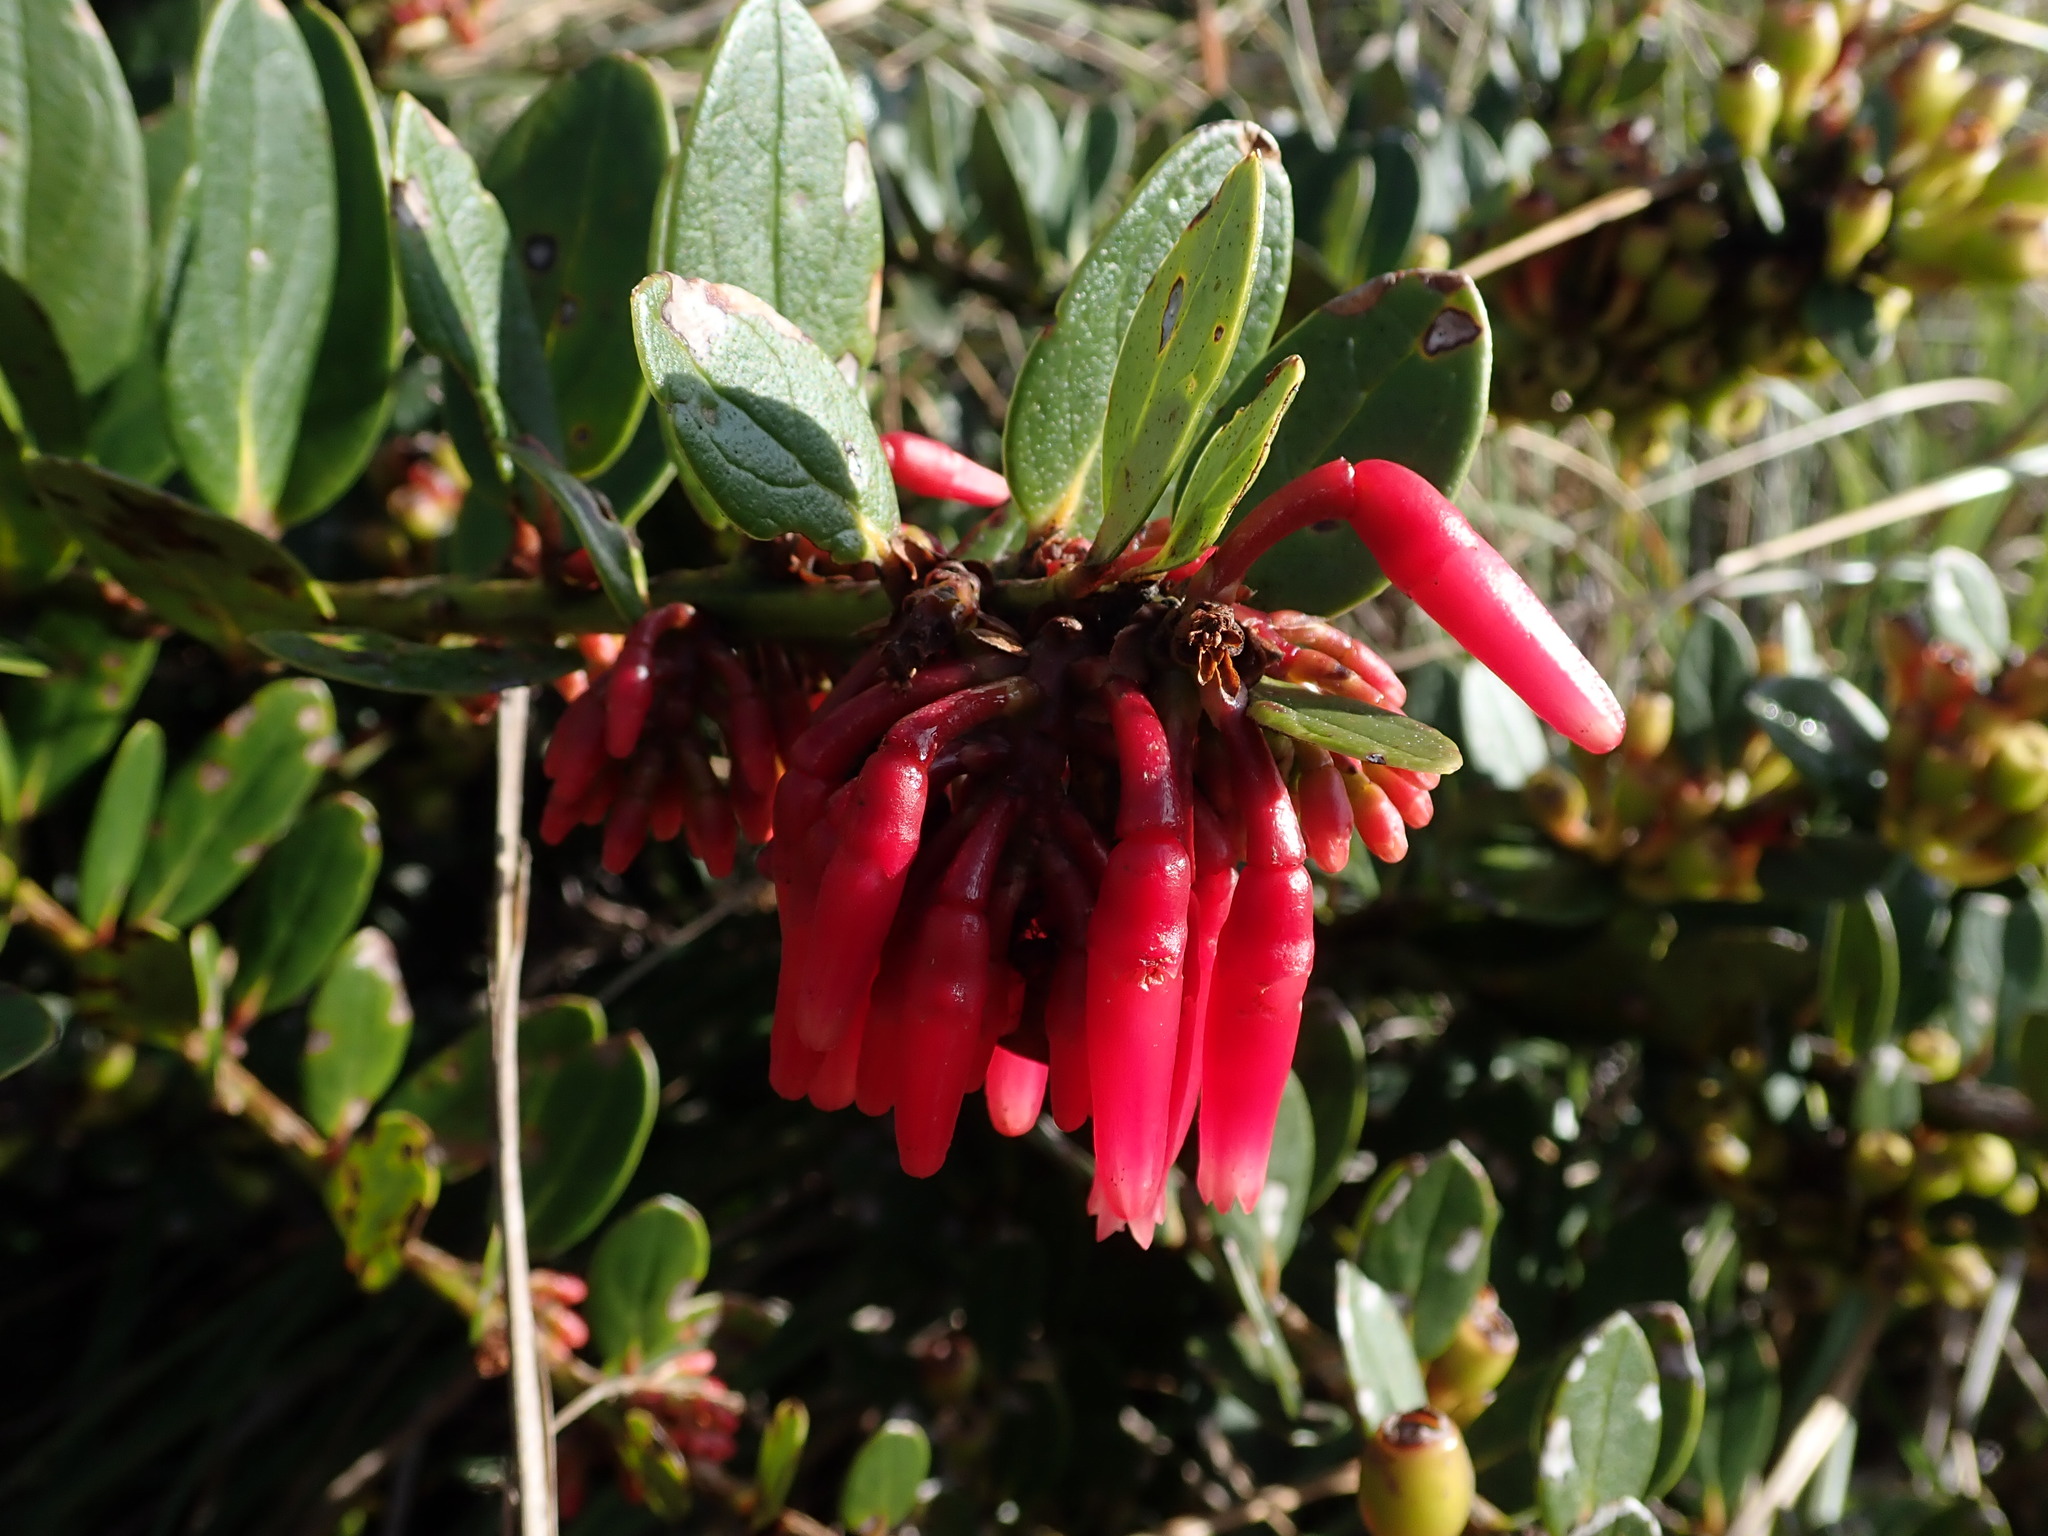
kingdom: Plantae
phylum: Tracheophyta
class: Magnoliopsida
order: Ericales
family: Ericaceae
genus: Macleania
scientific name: Macleania rupestris
